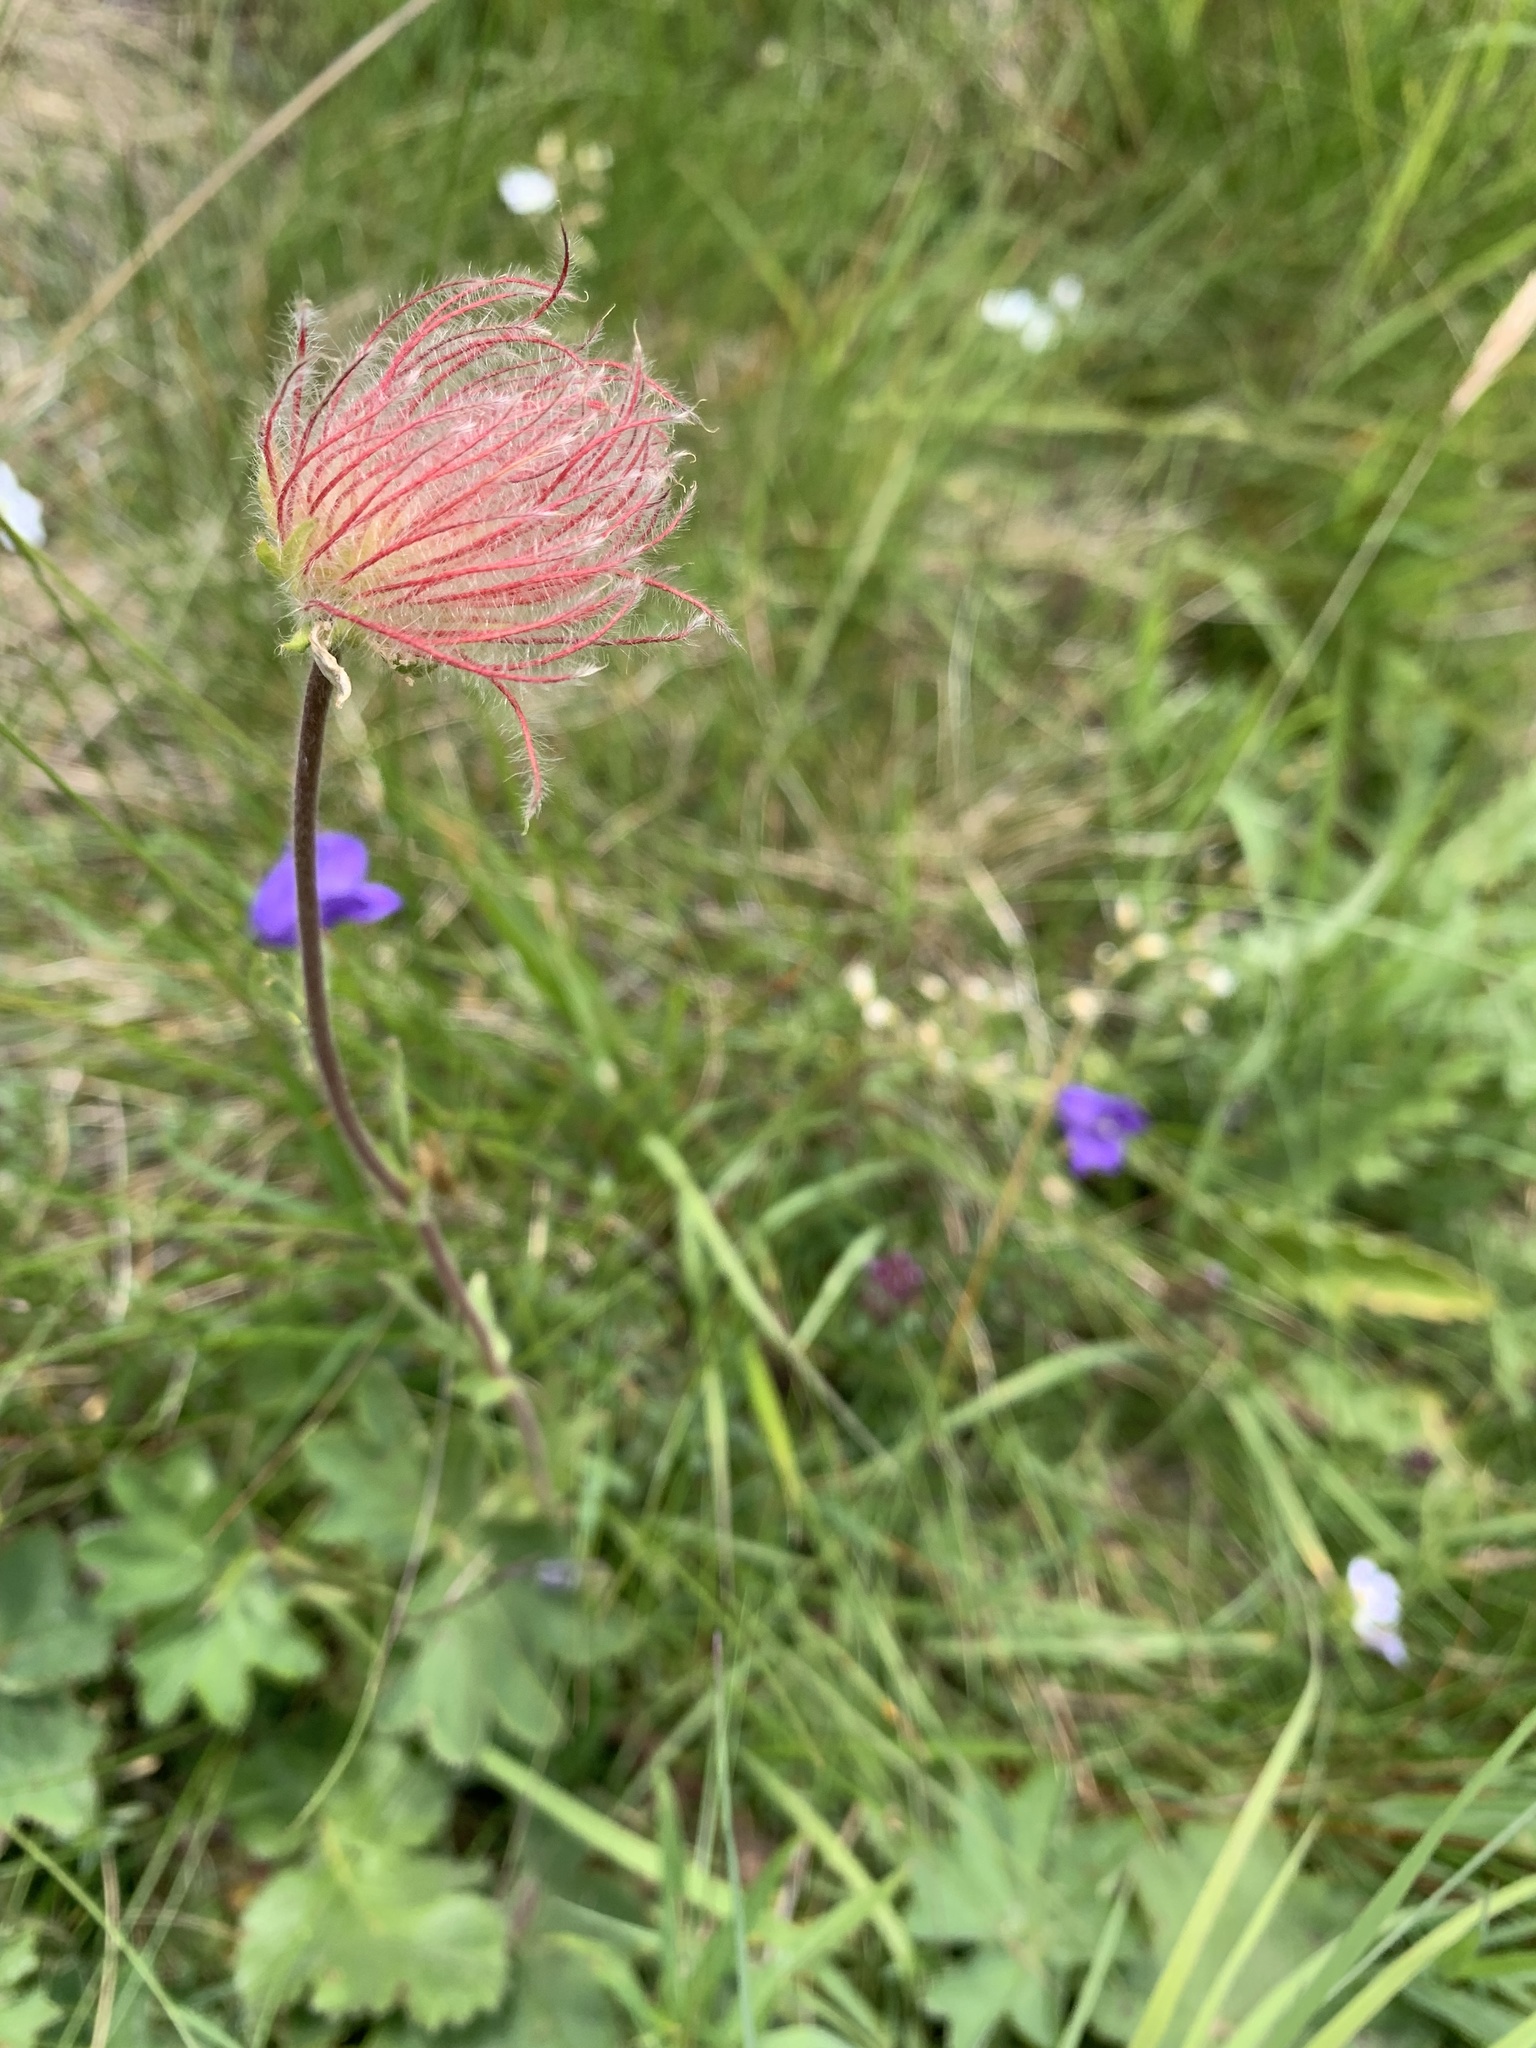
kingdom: Plantae
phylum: Tracheophyta
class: Magnoliopsida
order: Rosales
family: Rosaceae
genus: Geum
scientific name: Geum montanum
